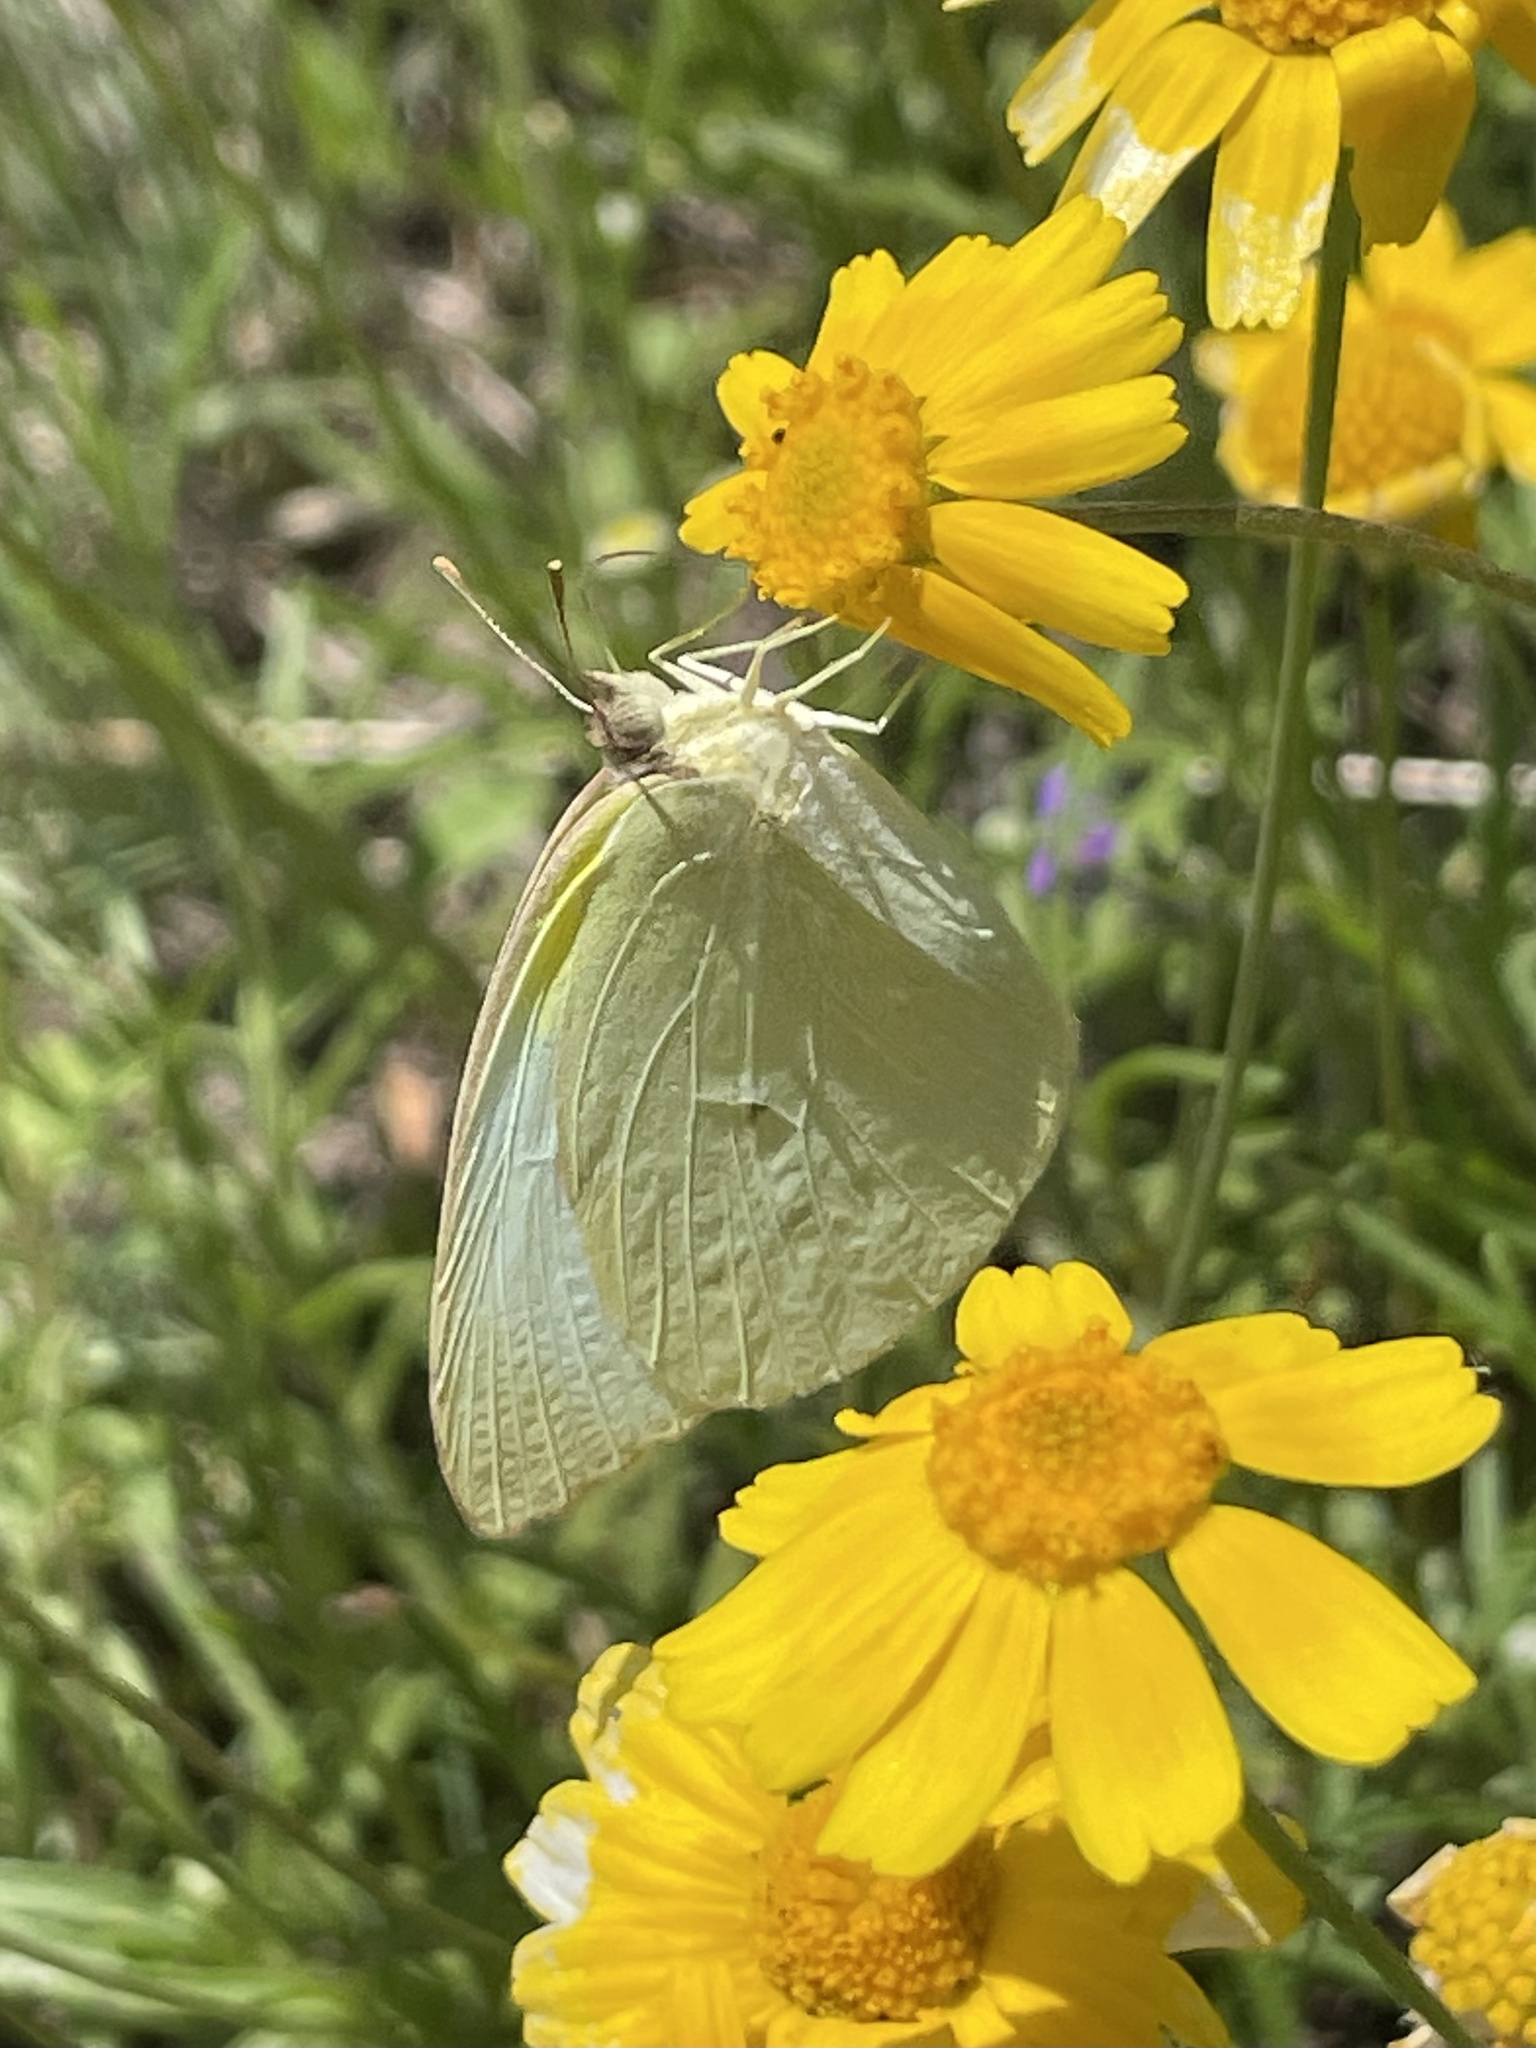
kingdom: Animalia
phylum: Arthropoda
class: Insecta
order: Lepidoptera
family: Pieridae
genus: Kricogonia
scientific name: Kricogonia lyside
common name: Guayacan sulphur,
